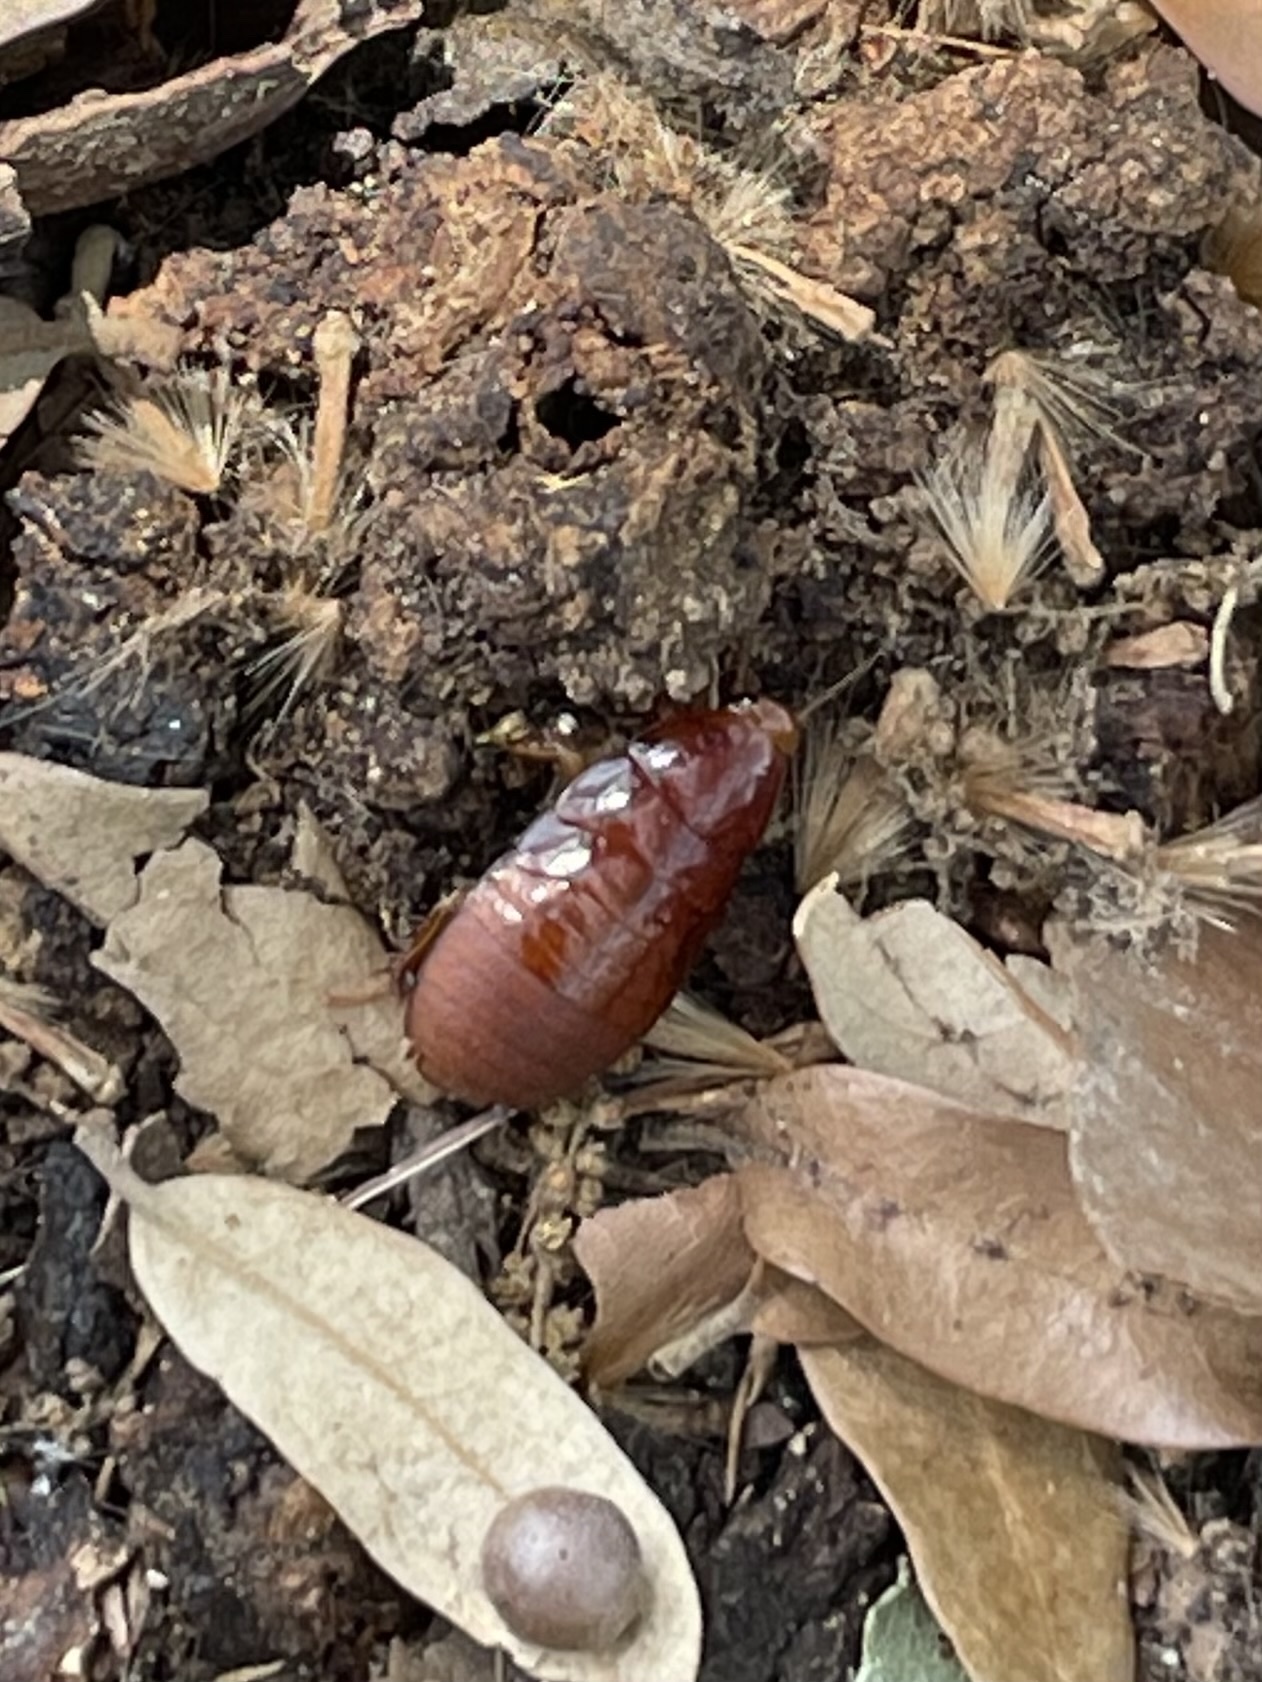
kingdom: Animalia
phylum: Arthropoda
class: Insecta
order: Blattodea
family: Blaberidae
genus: Pycnoscelus
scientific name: Pycnoscelus surinamensis
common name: Surinam cockroach
